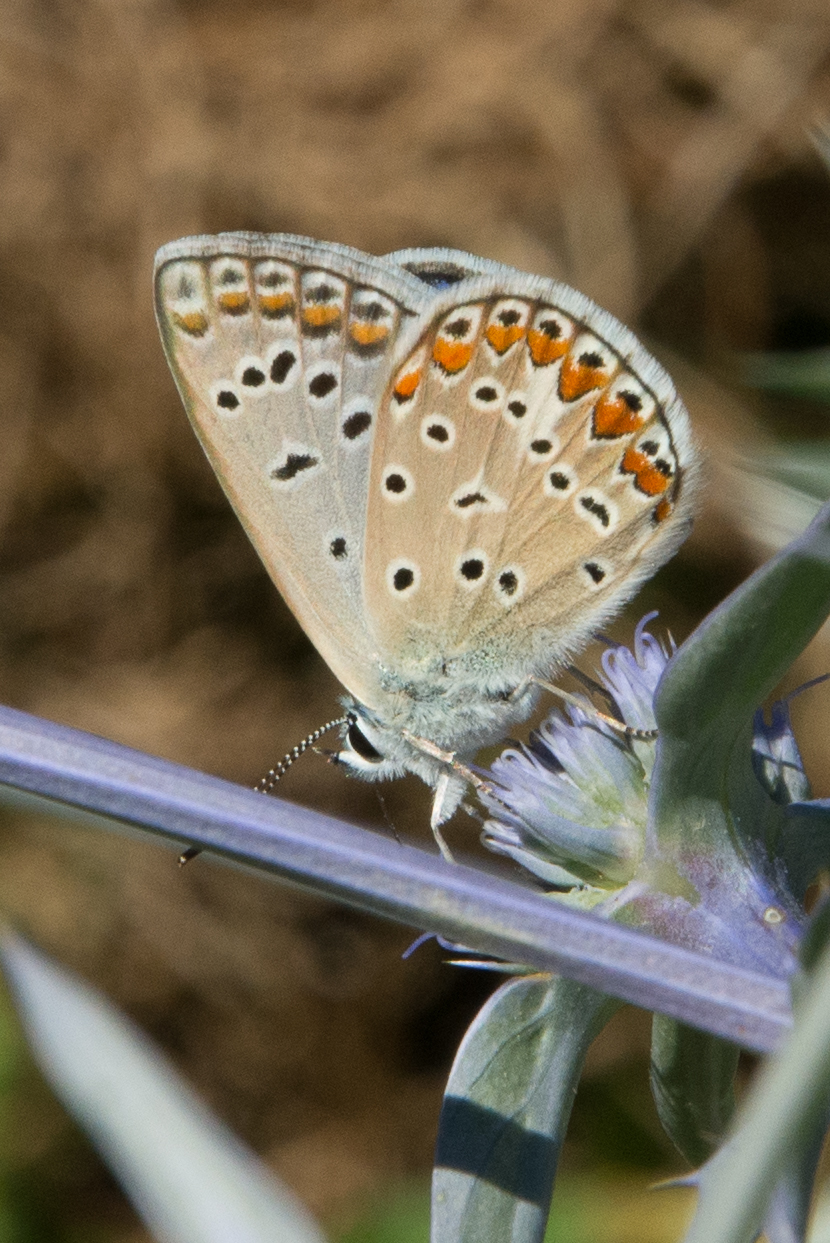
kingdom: Animalia
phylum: Arthropoda
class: Insecta
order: Lepidoptera
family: Lycaenidae
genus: Polyommatus
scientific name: Polyommatus celina
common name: Austaut's blue
